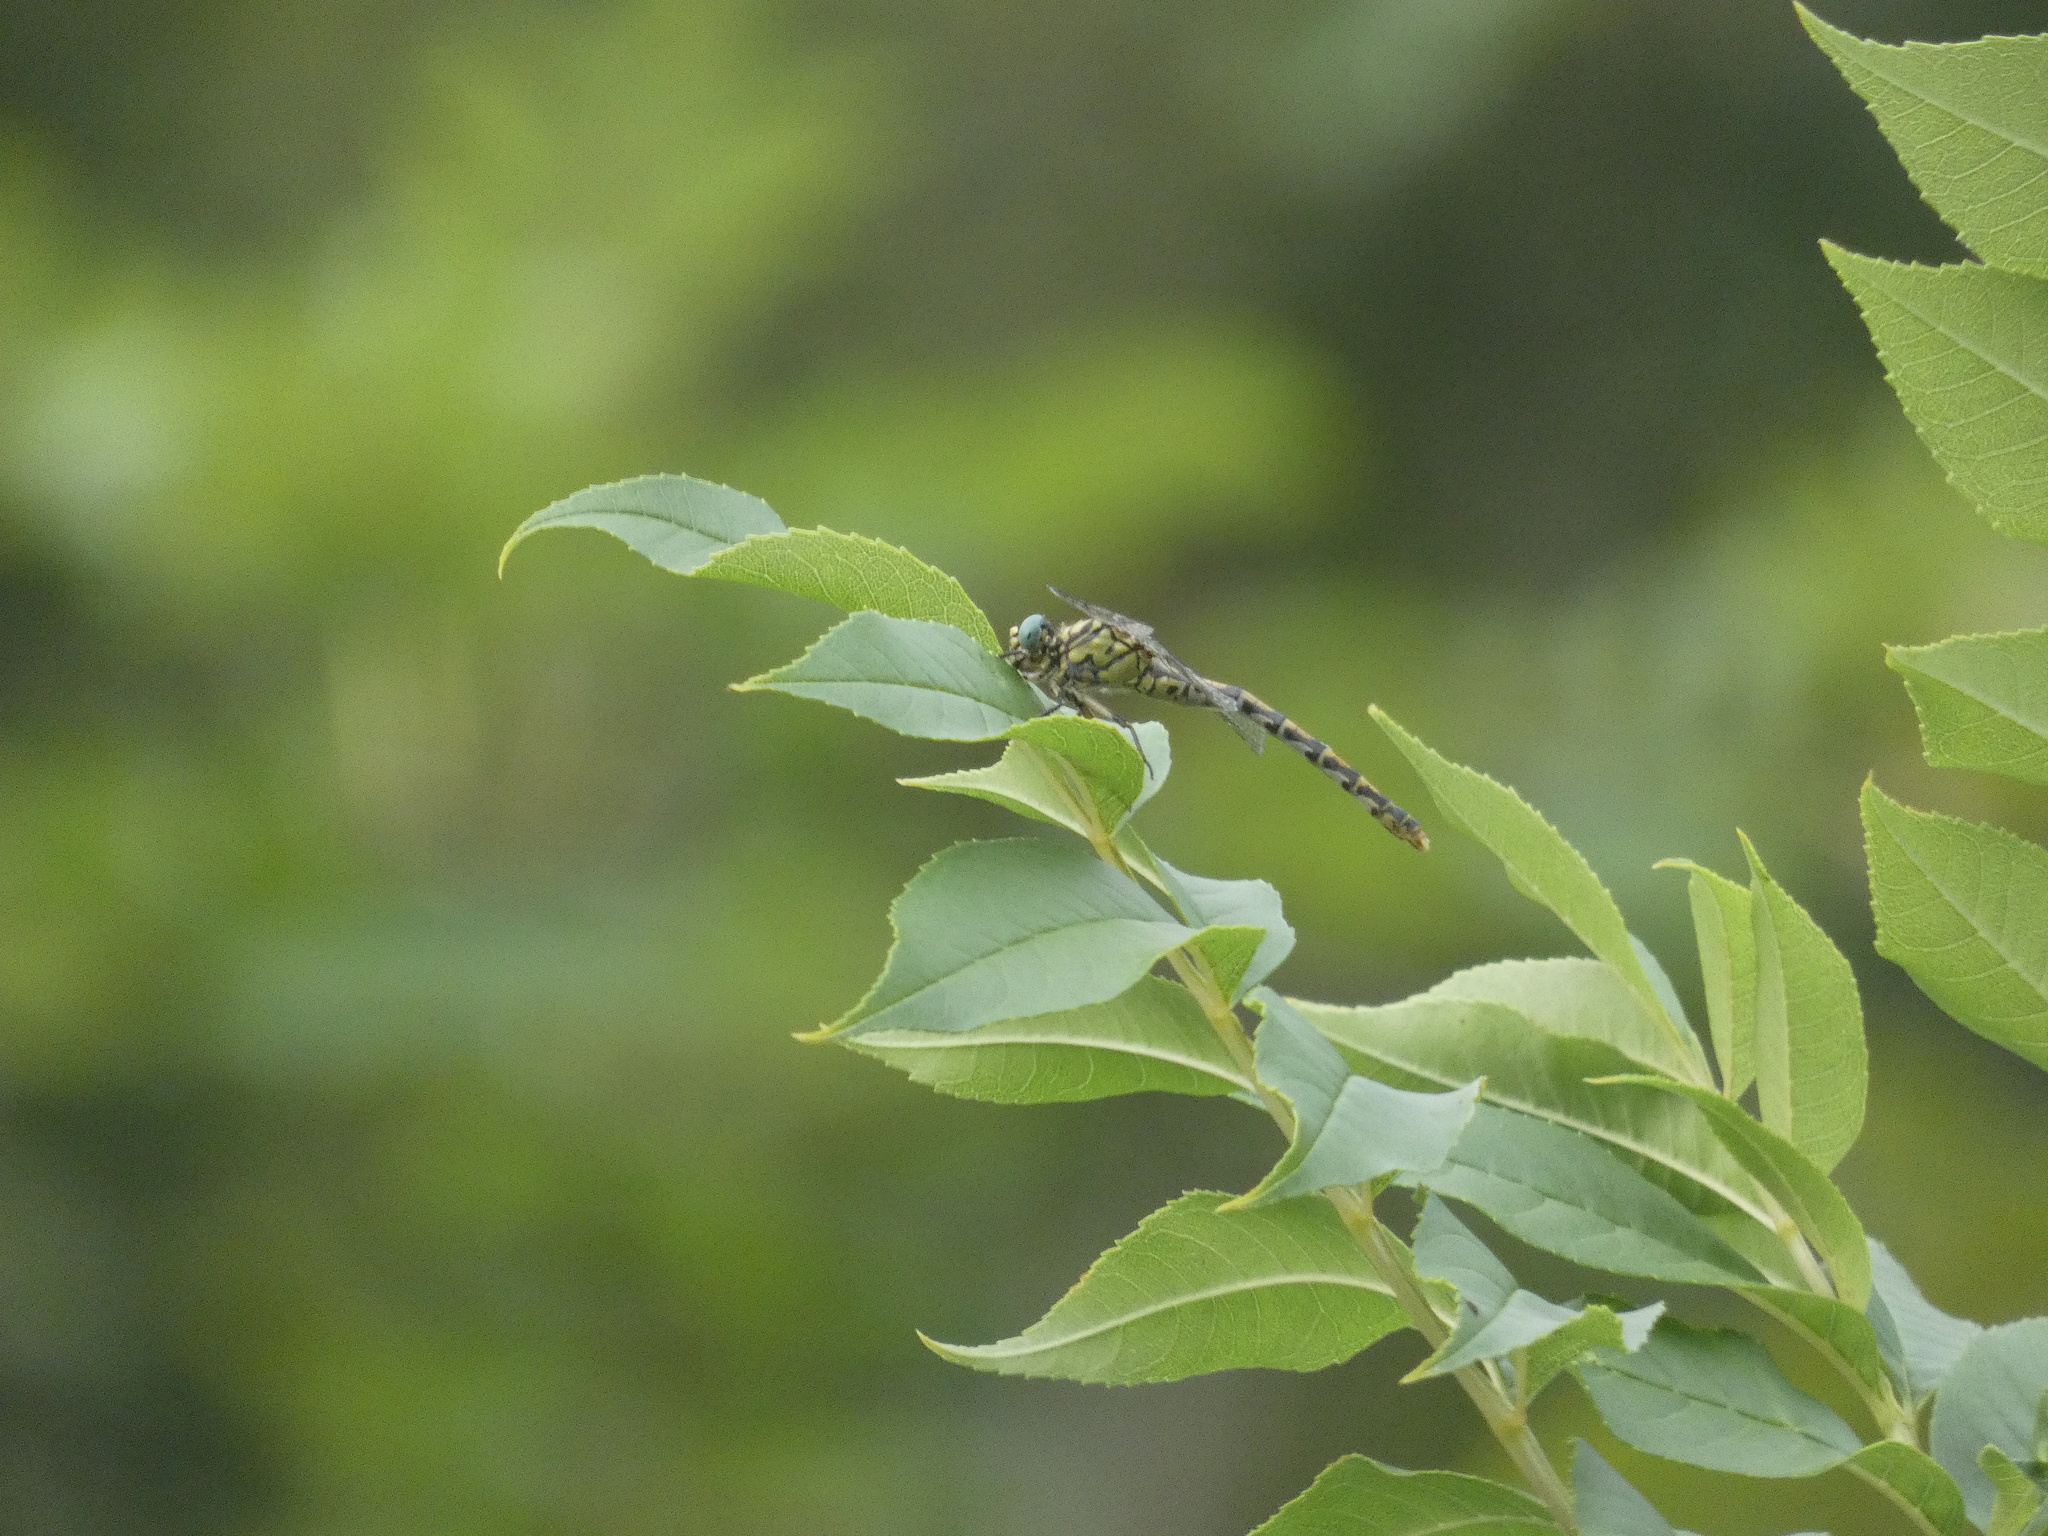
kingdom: Animalia
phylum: Arthropoda
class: Insecta
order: Odonata
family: Gomphidae
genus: Onychogomphus
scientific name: Onychogomphus forcipatus
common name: Small pincertail
